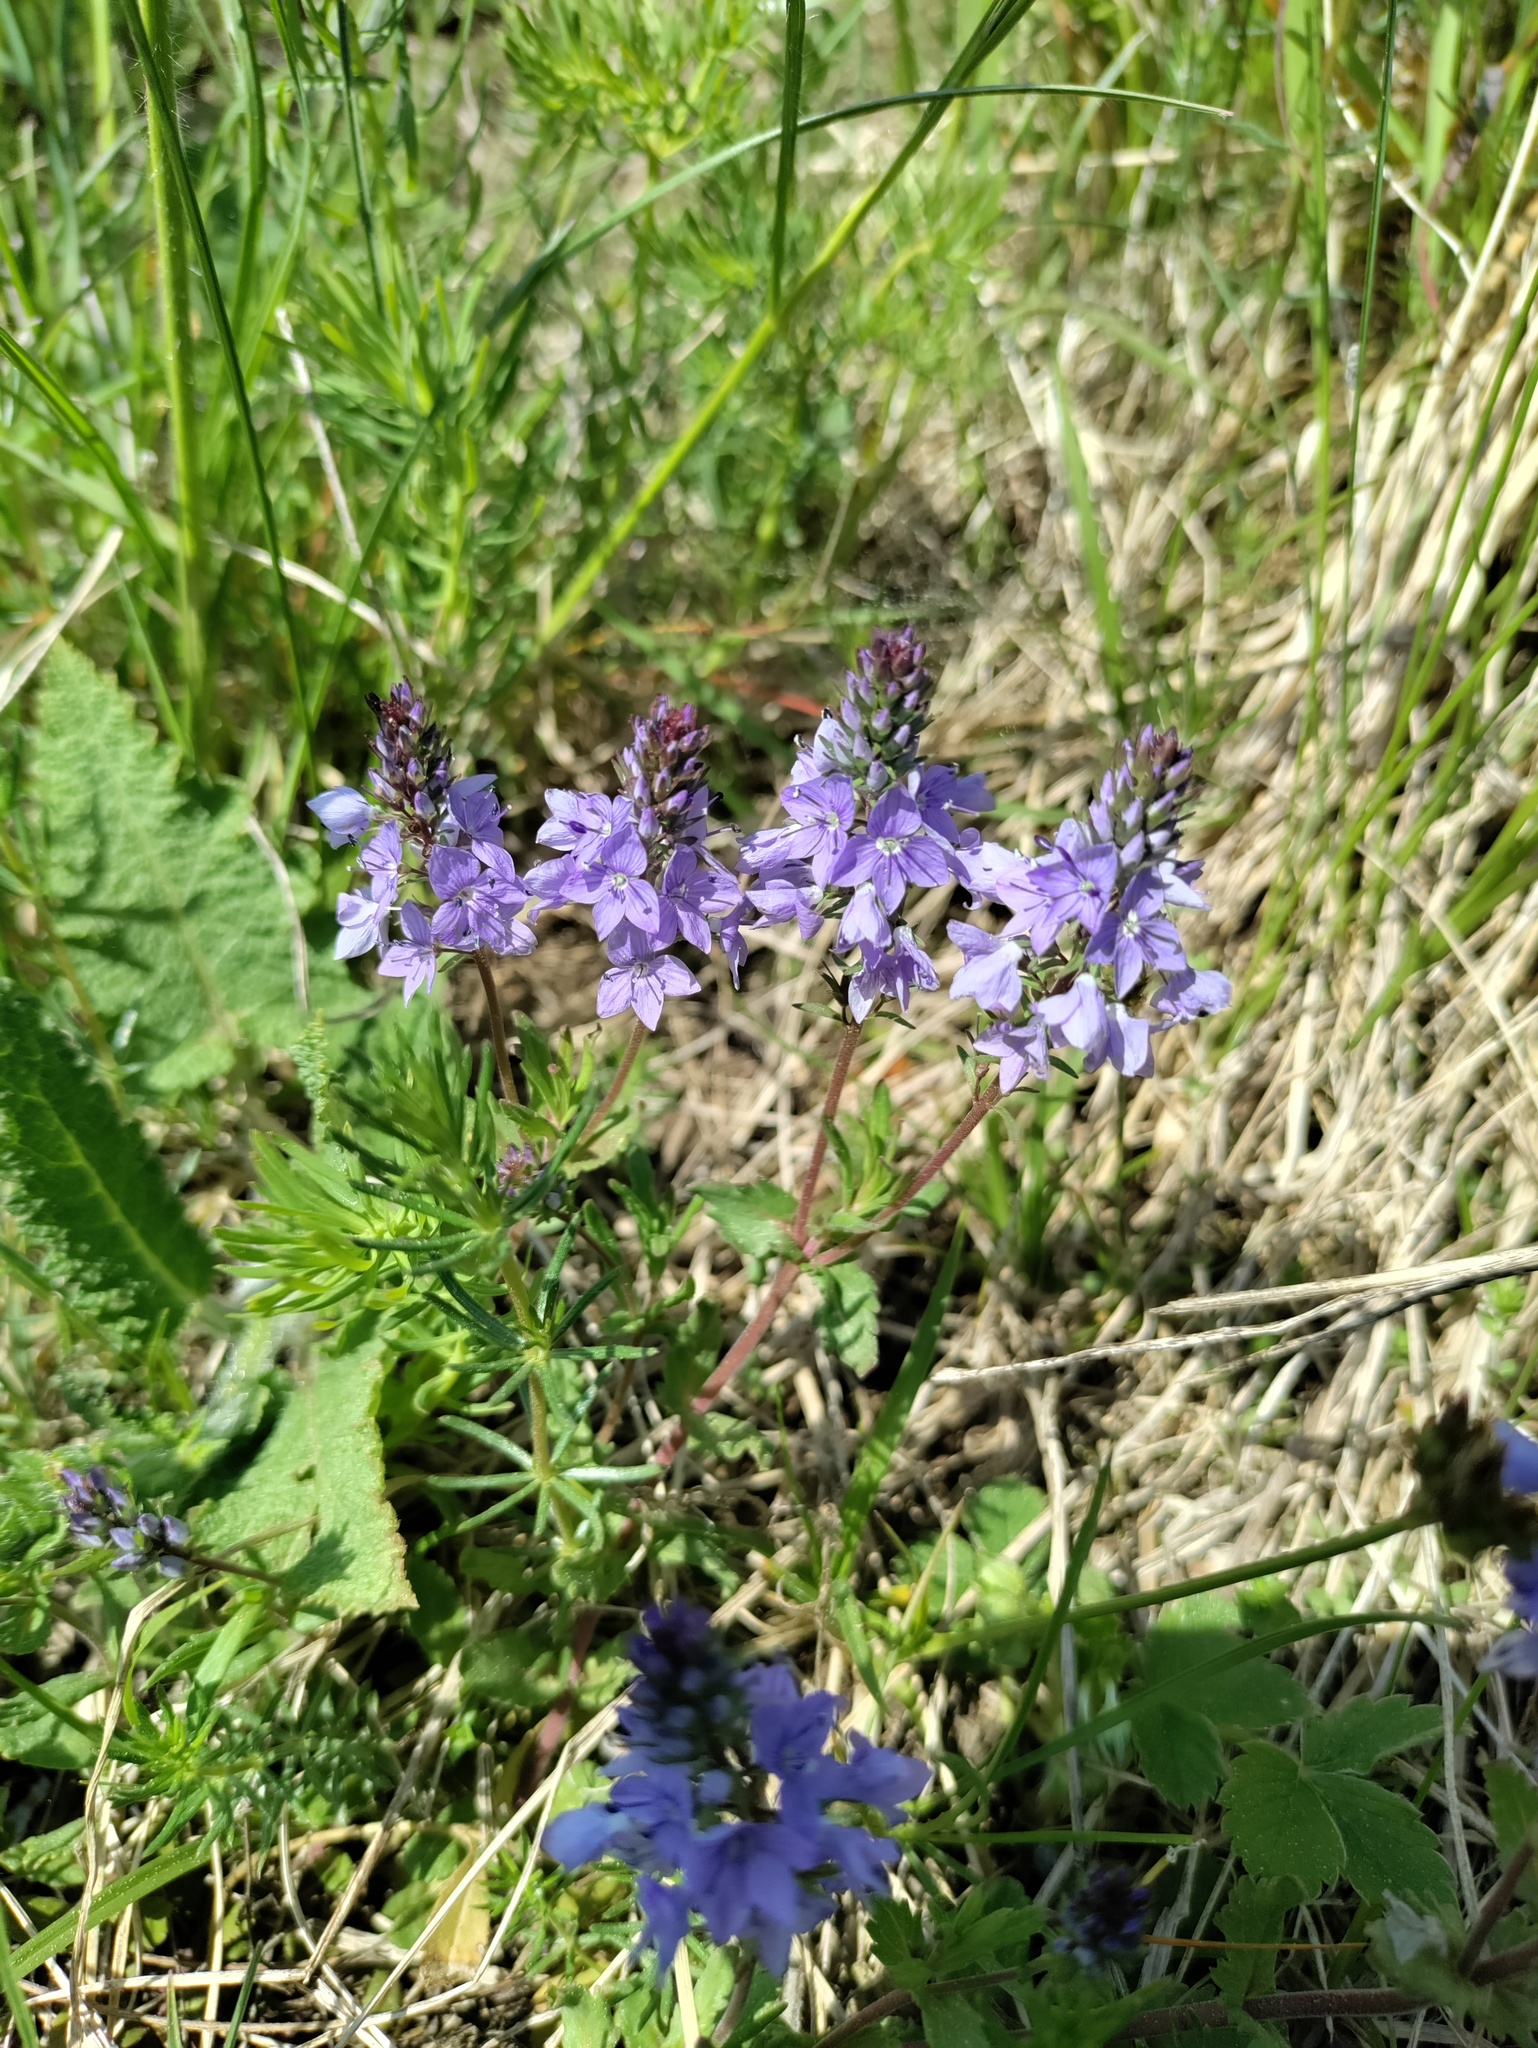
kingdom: Plantae
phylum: Tracheophyta
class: Magnoliopsida
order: Lamiales
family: Plantaginaceae
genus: Veronica
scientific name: Veronica prostrata
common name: Prostrate speedwell
